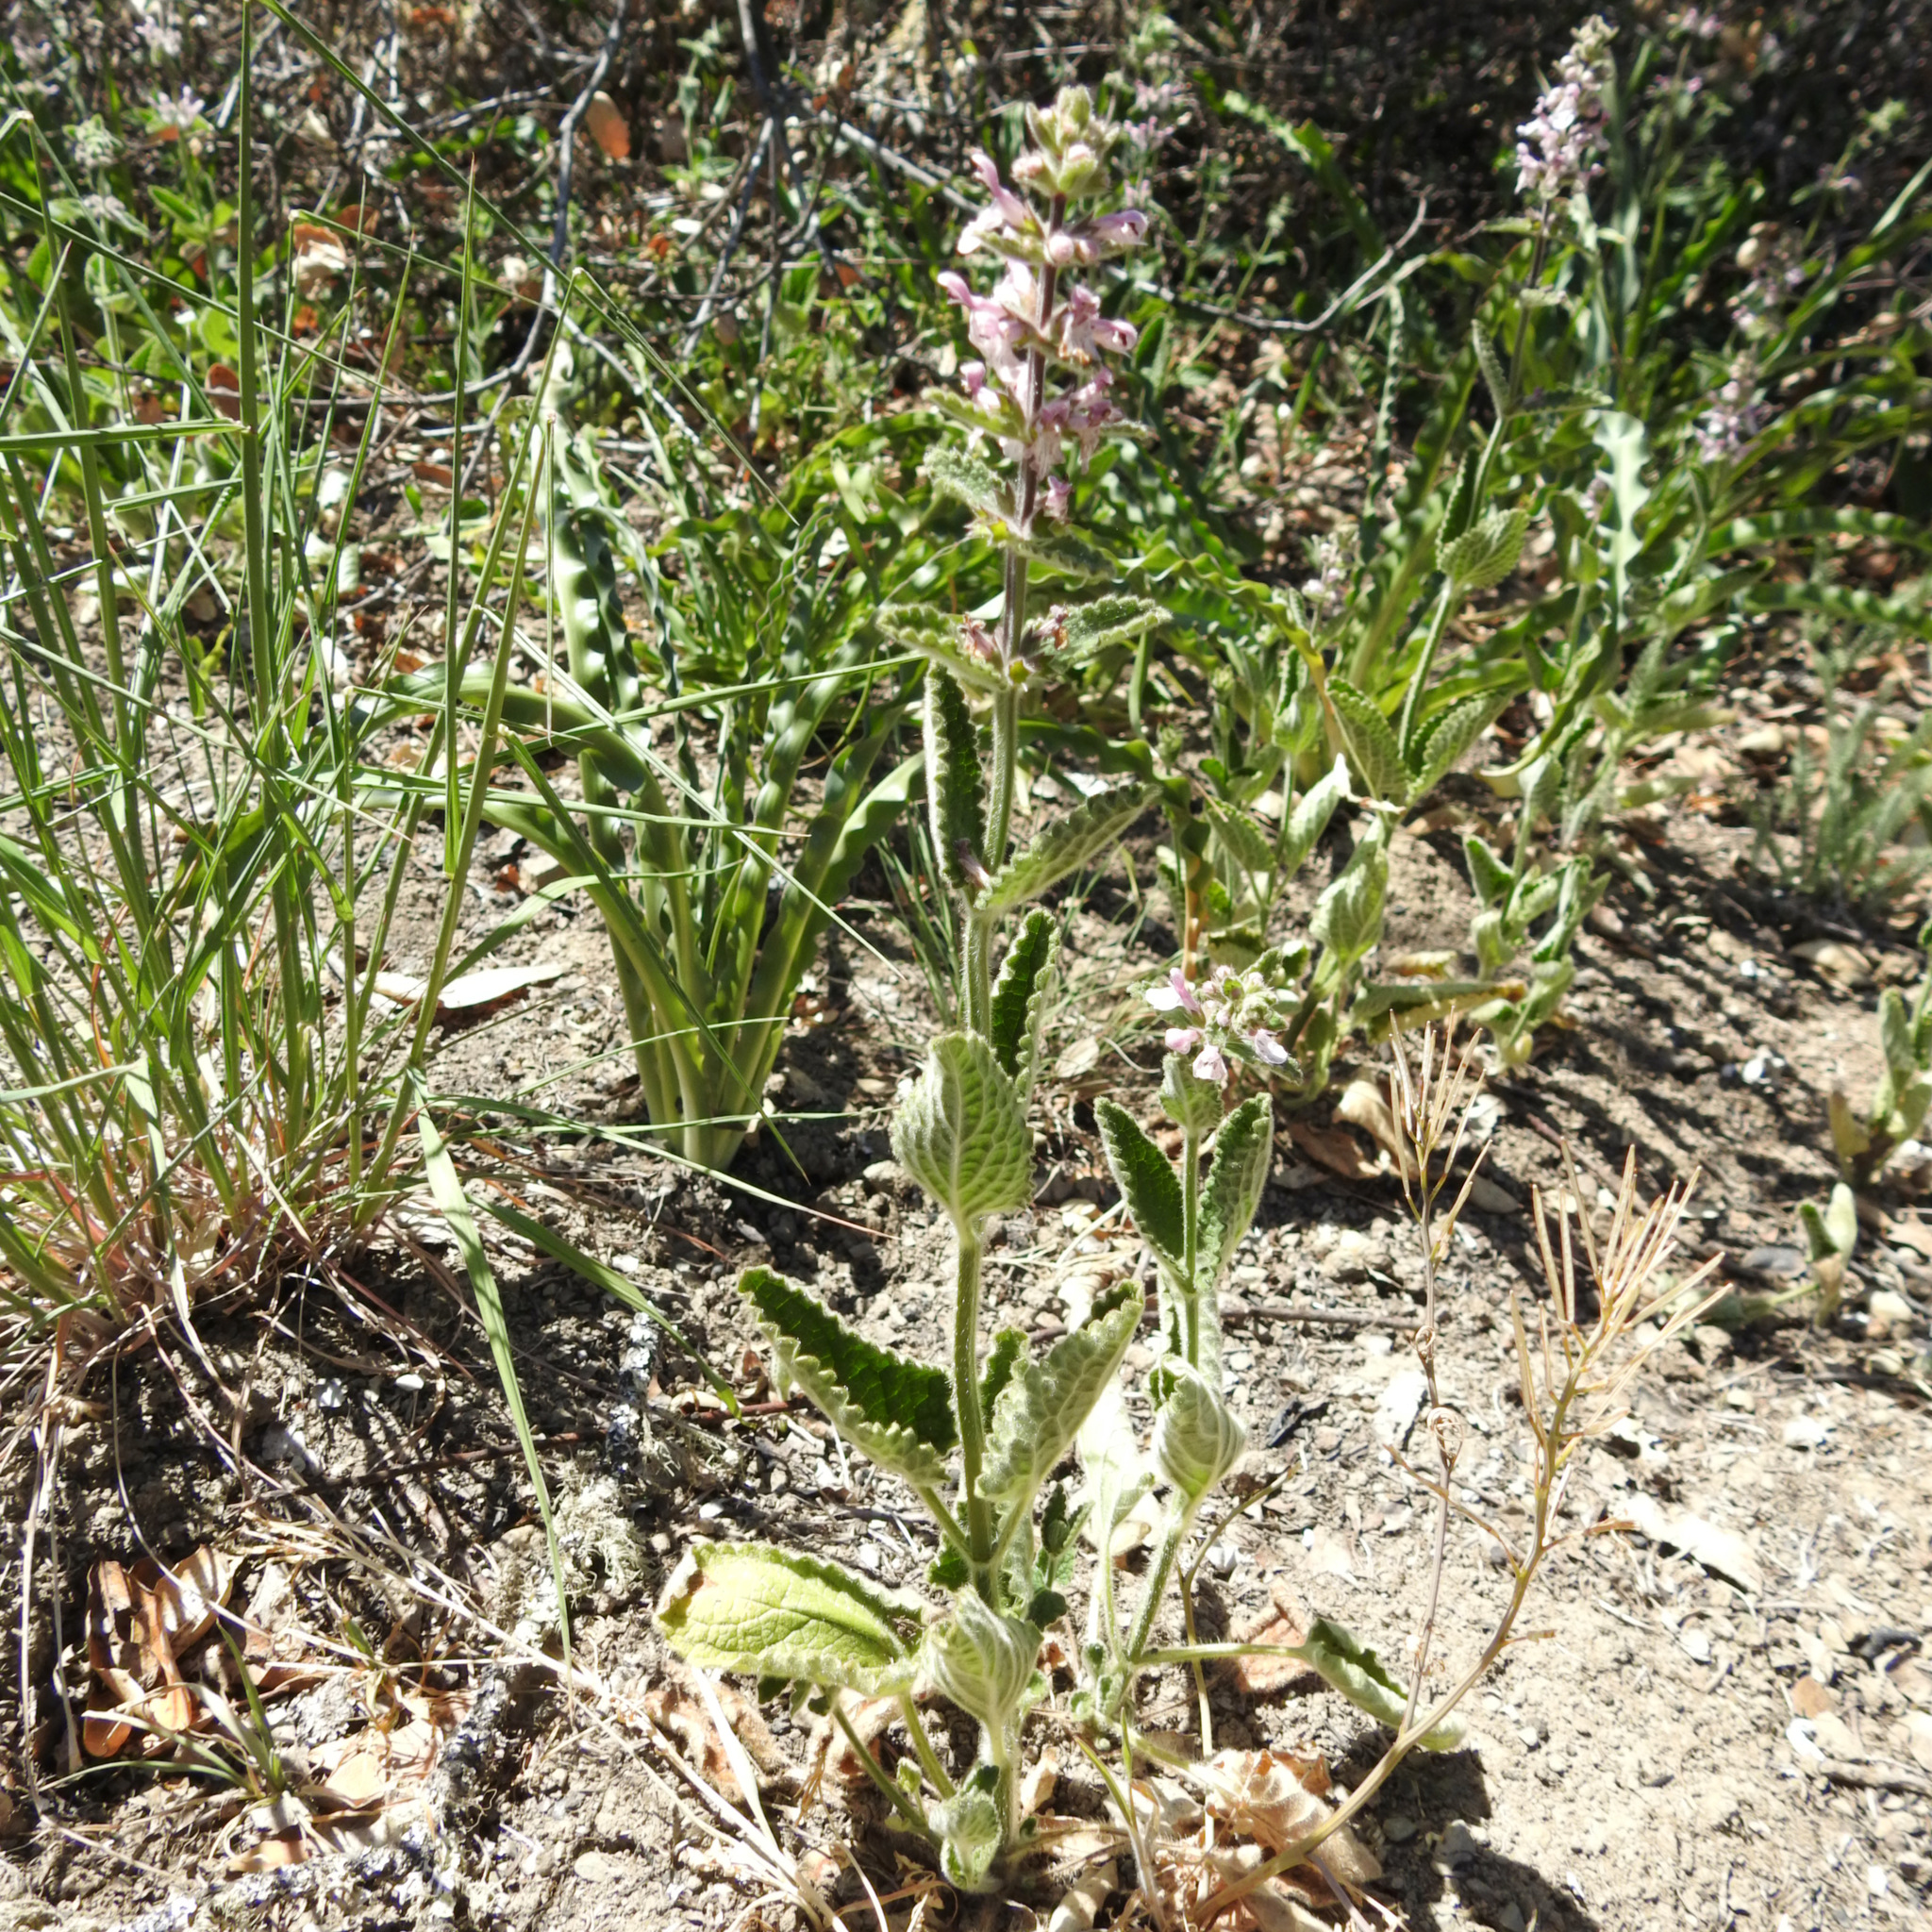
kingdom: Plantae
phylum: Tracheophyta
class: Magnoliopsida
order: Lamiales
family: Lamiaceae
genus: Stachys
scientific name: Stachys rigida
